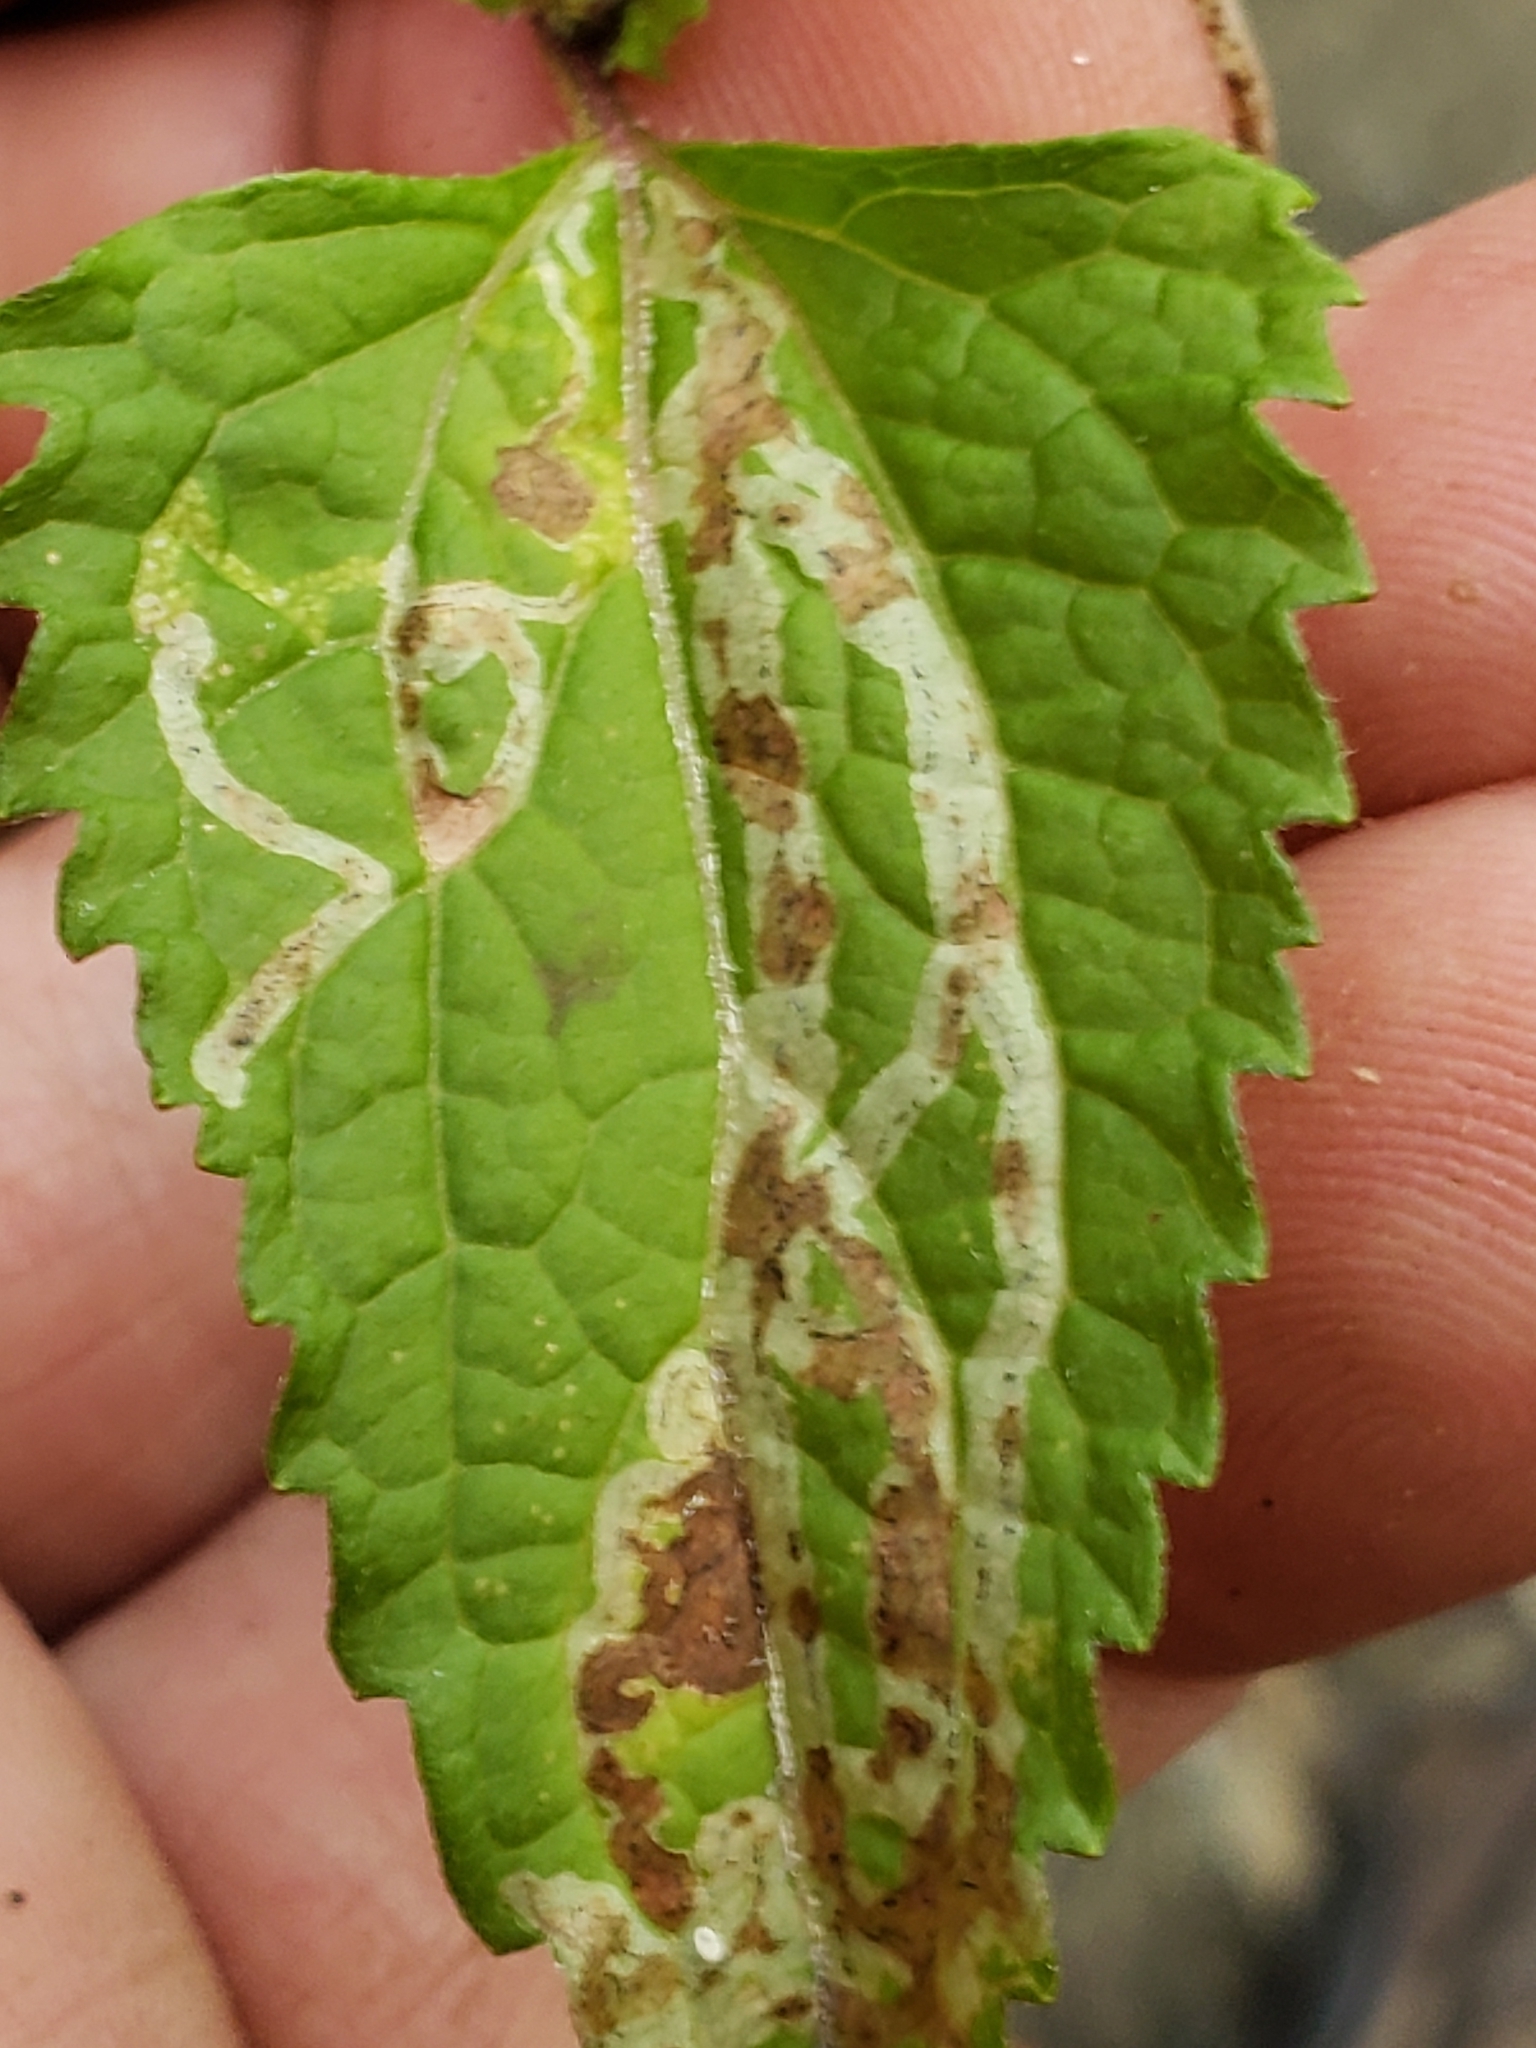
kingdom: Animalia
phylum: Arthropoda
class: Insecta
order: Diptera
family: Agromyzidae
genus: Liriomyza
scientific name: Liriomyza carphephori
